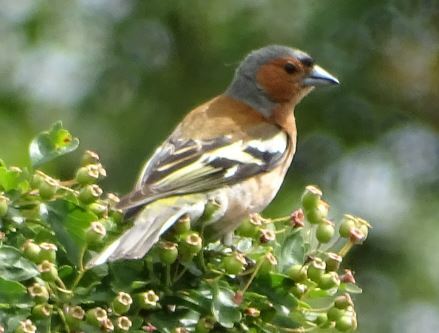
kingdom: Animalia
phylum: Chordata
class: Aves
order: Passeriformes
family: Fringillidae
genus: Fringilla
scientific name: Fringilla coelebs
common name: Common chaffinch
